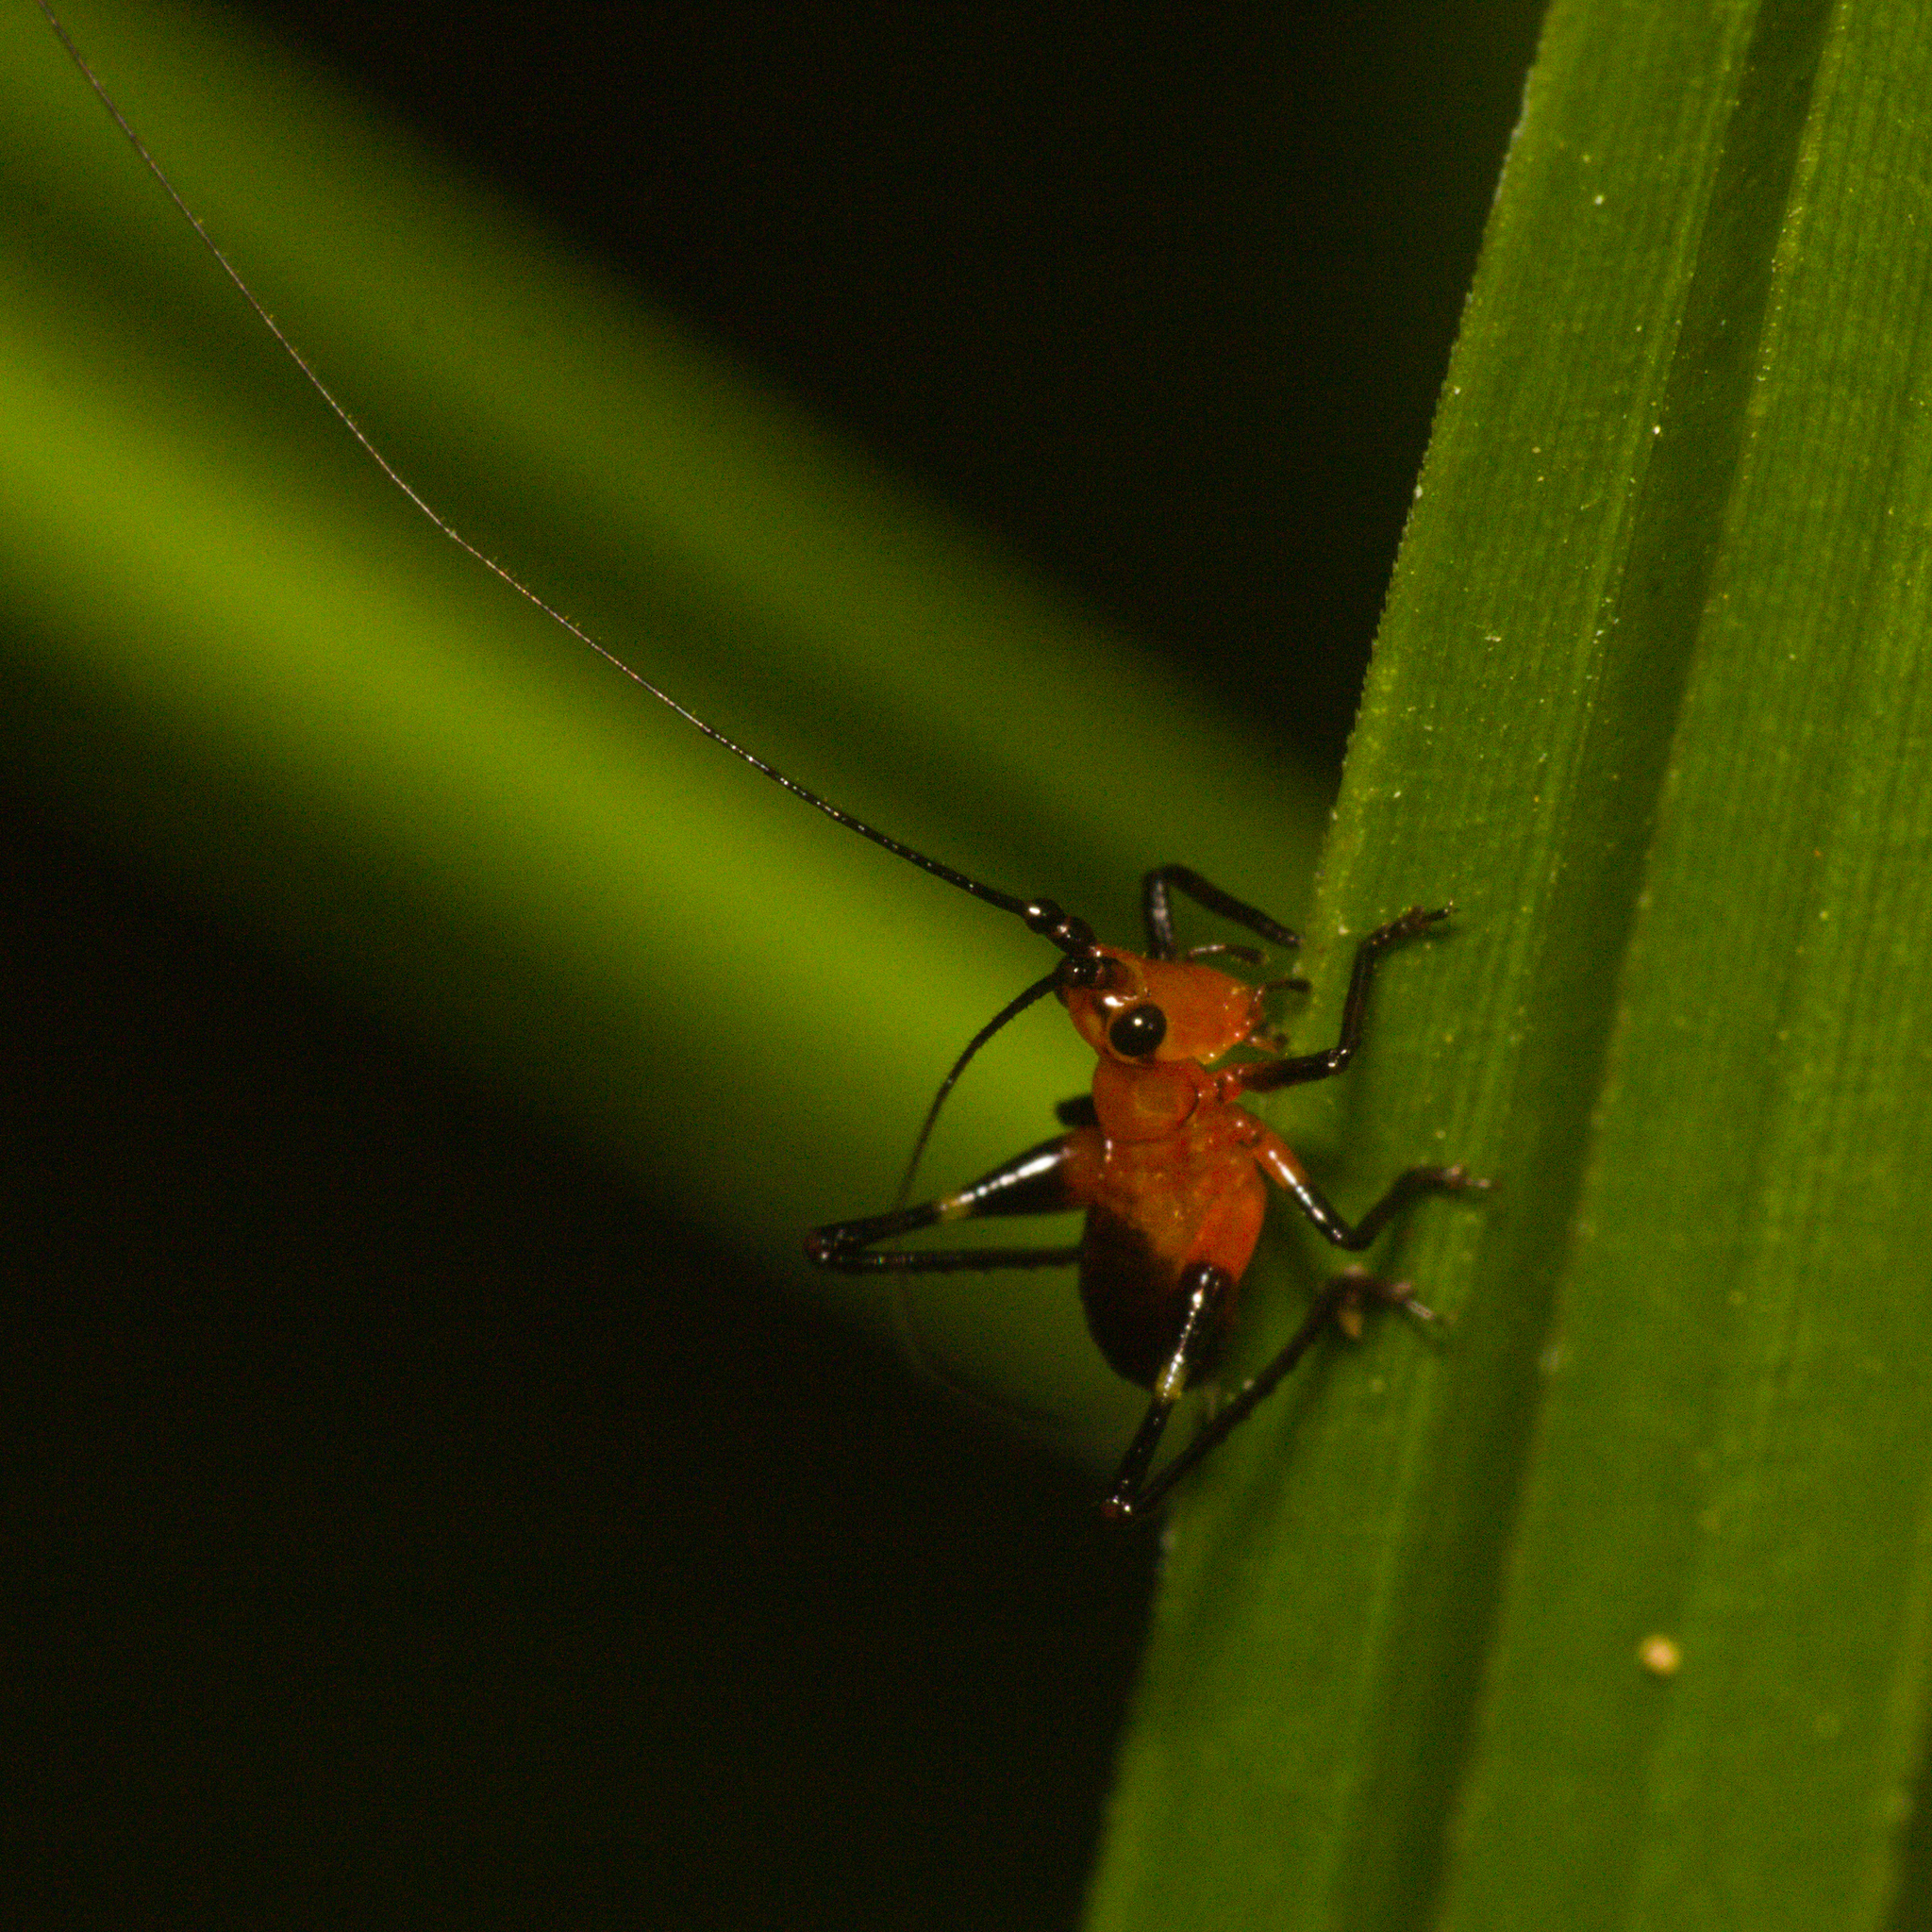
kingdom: Animalia
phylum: Arthropoda
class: Insecta
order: Orthoptera
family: Tettigoniidae
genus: Conocephalus
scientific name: Conocephalus melaenus
